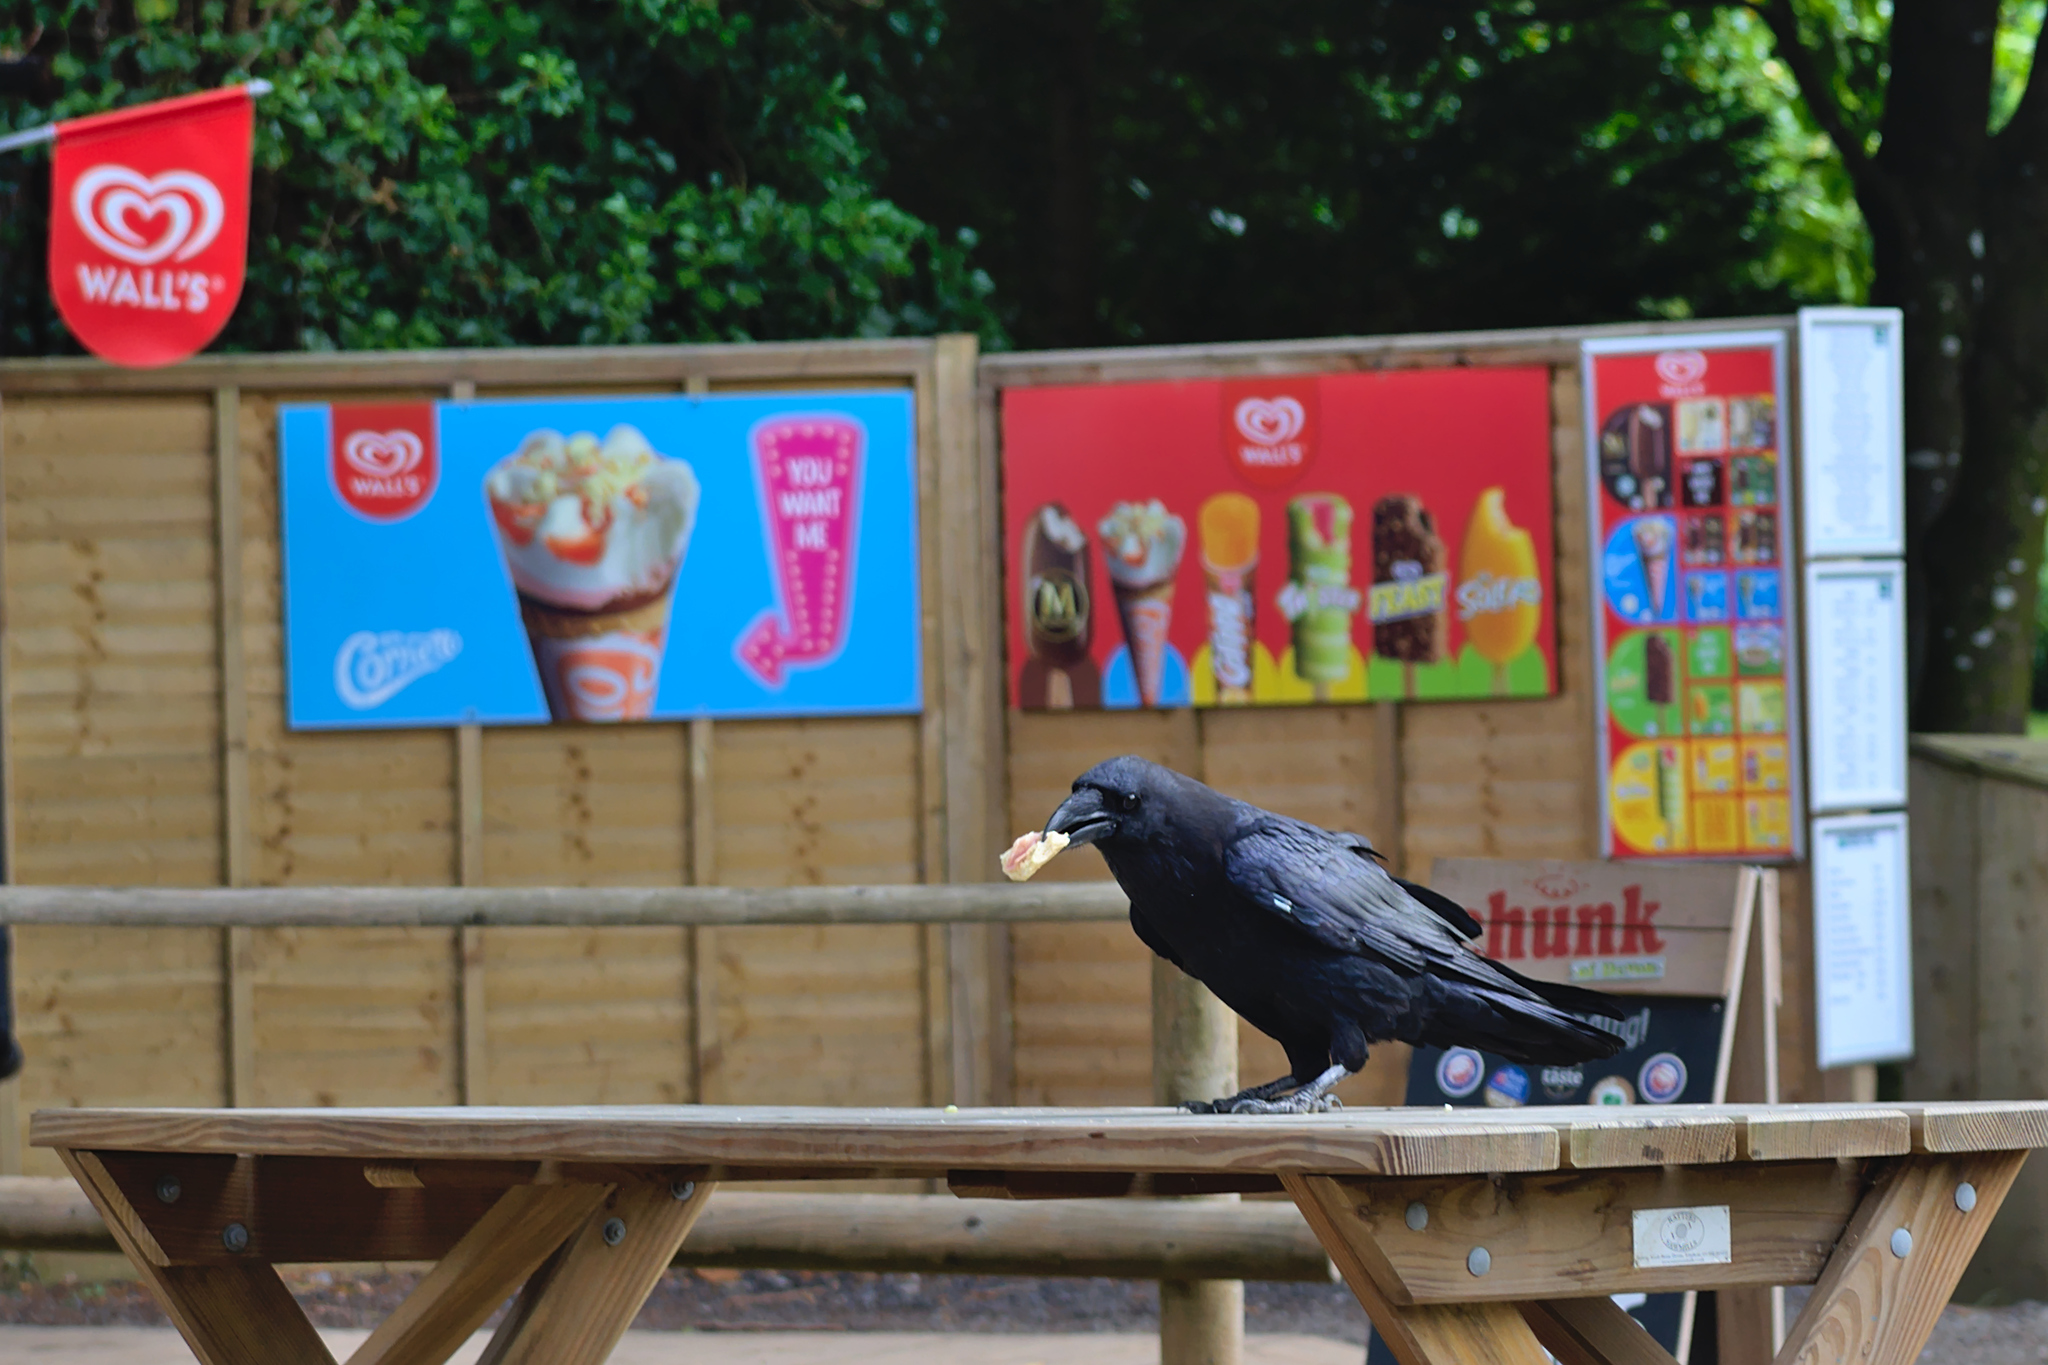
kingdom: Animalia
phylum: Chordata
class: Aves
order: Passeriformes
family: Corvidae
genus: Corvus
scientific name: Corvus corax
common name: Common raven
